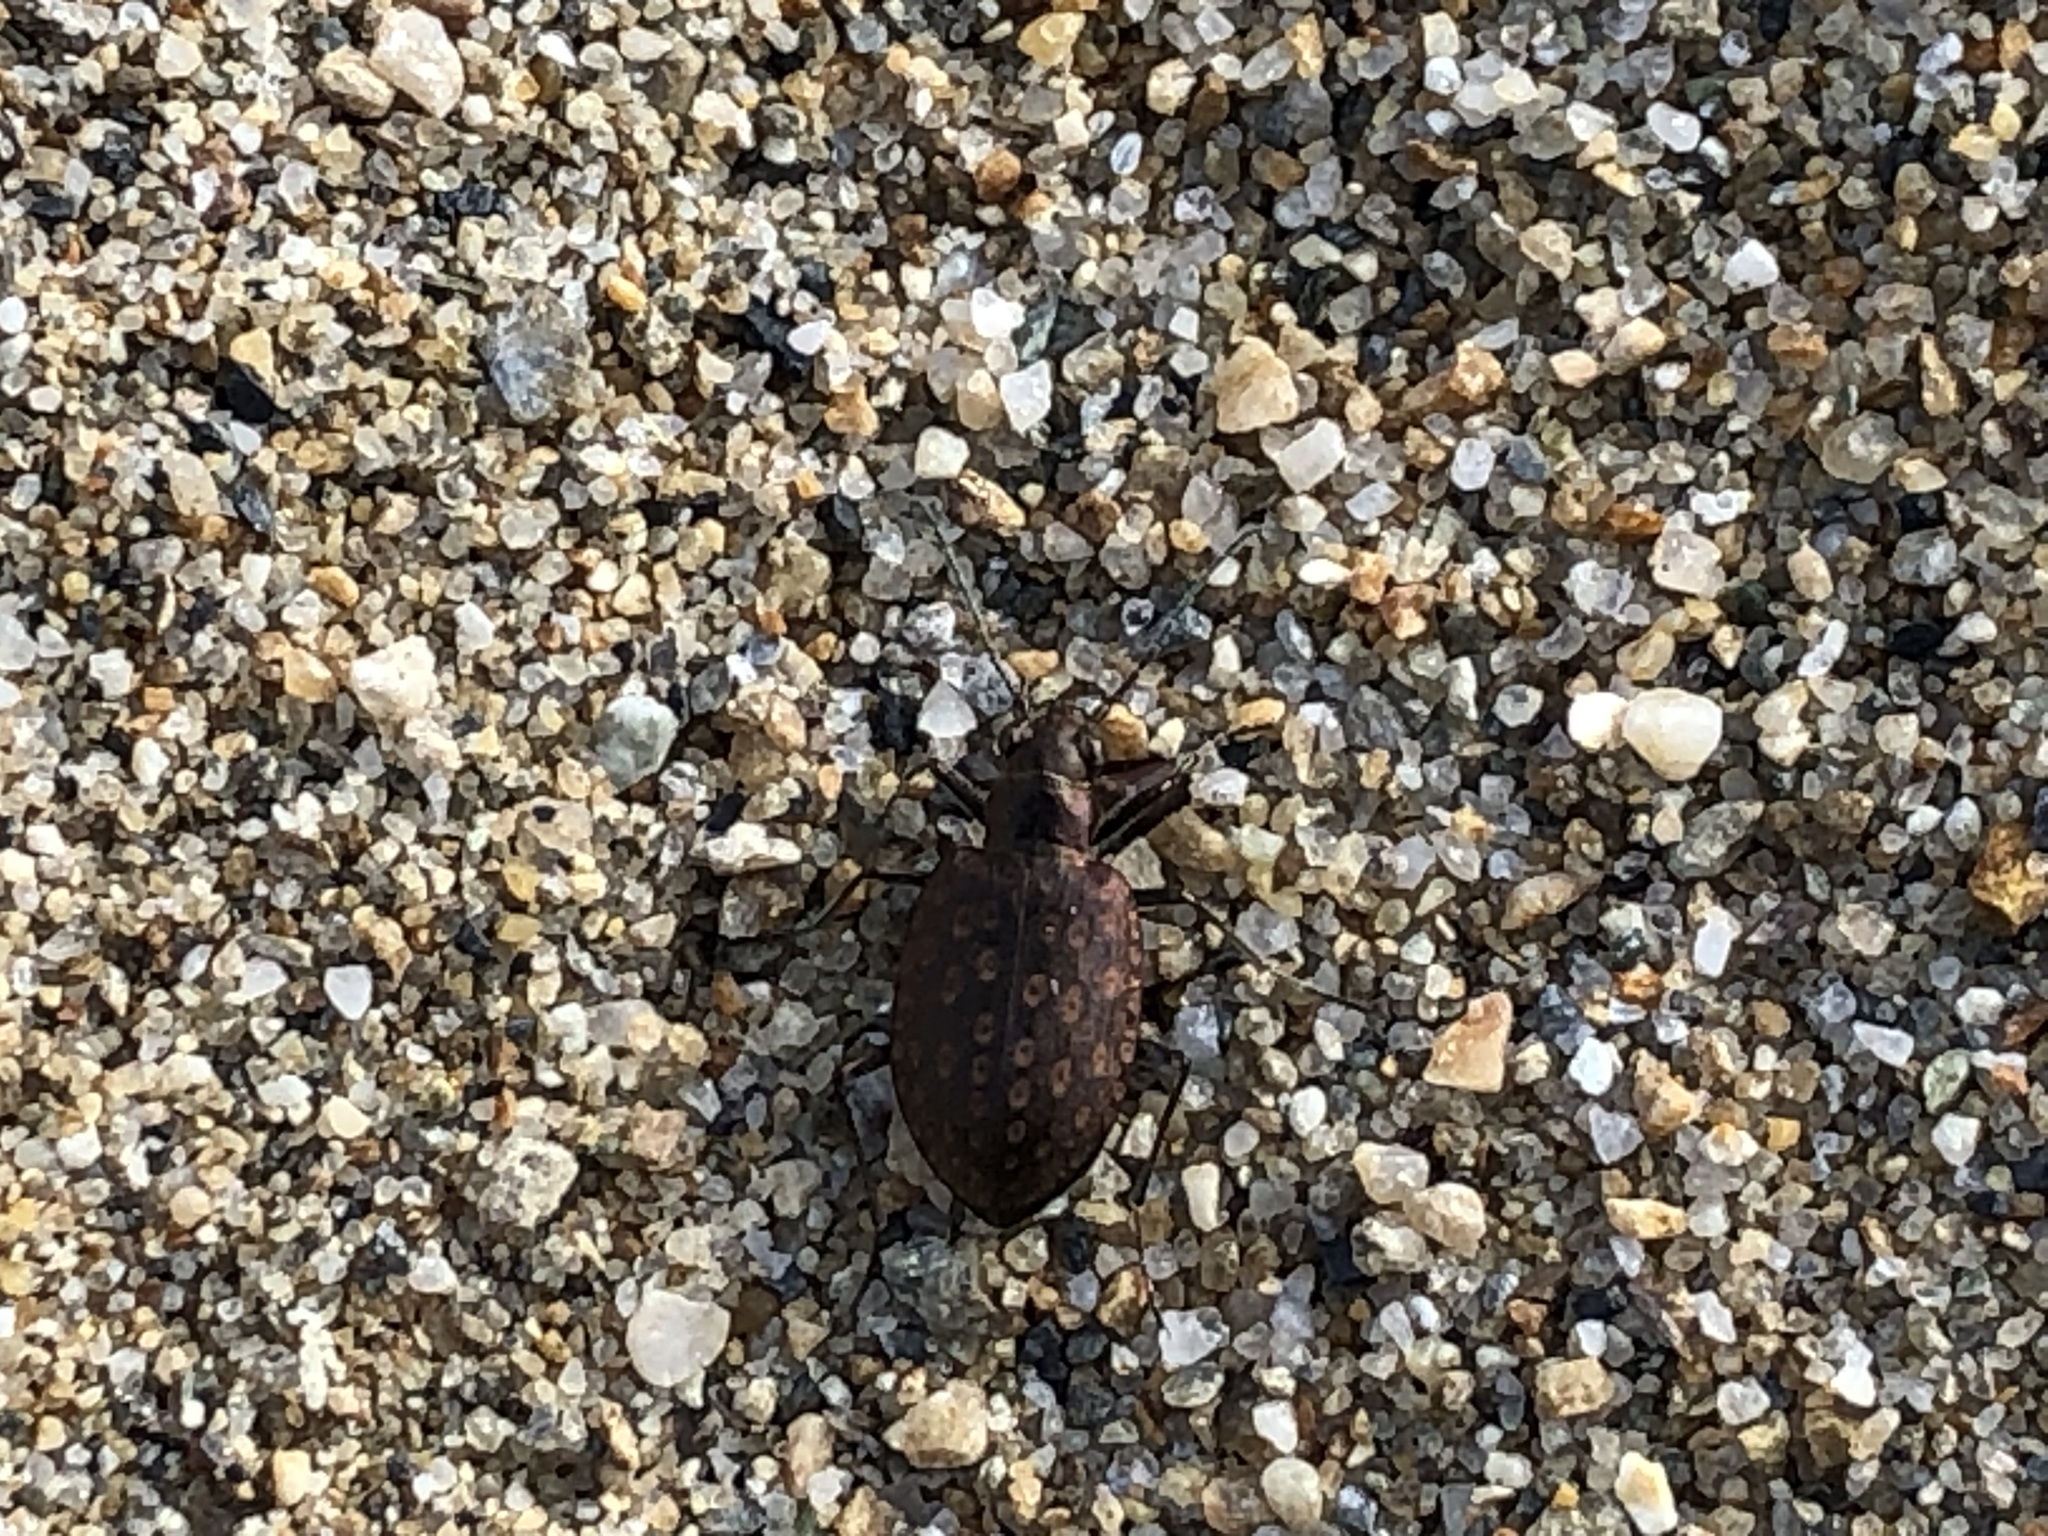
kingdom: Animalia
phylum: Arthropoda
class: Insecta
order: Coleoptera
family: Carabidae
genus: Opisthius
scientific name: Opisthius richardsoni
